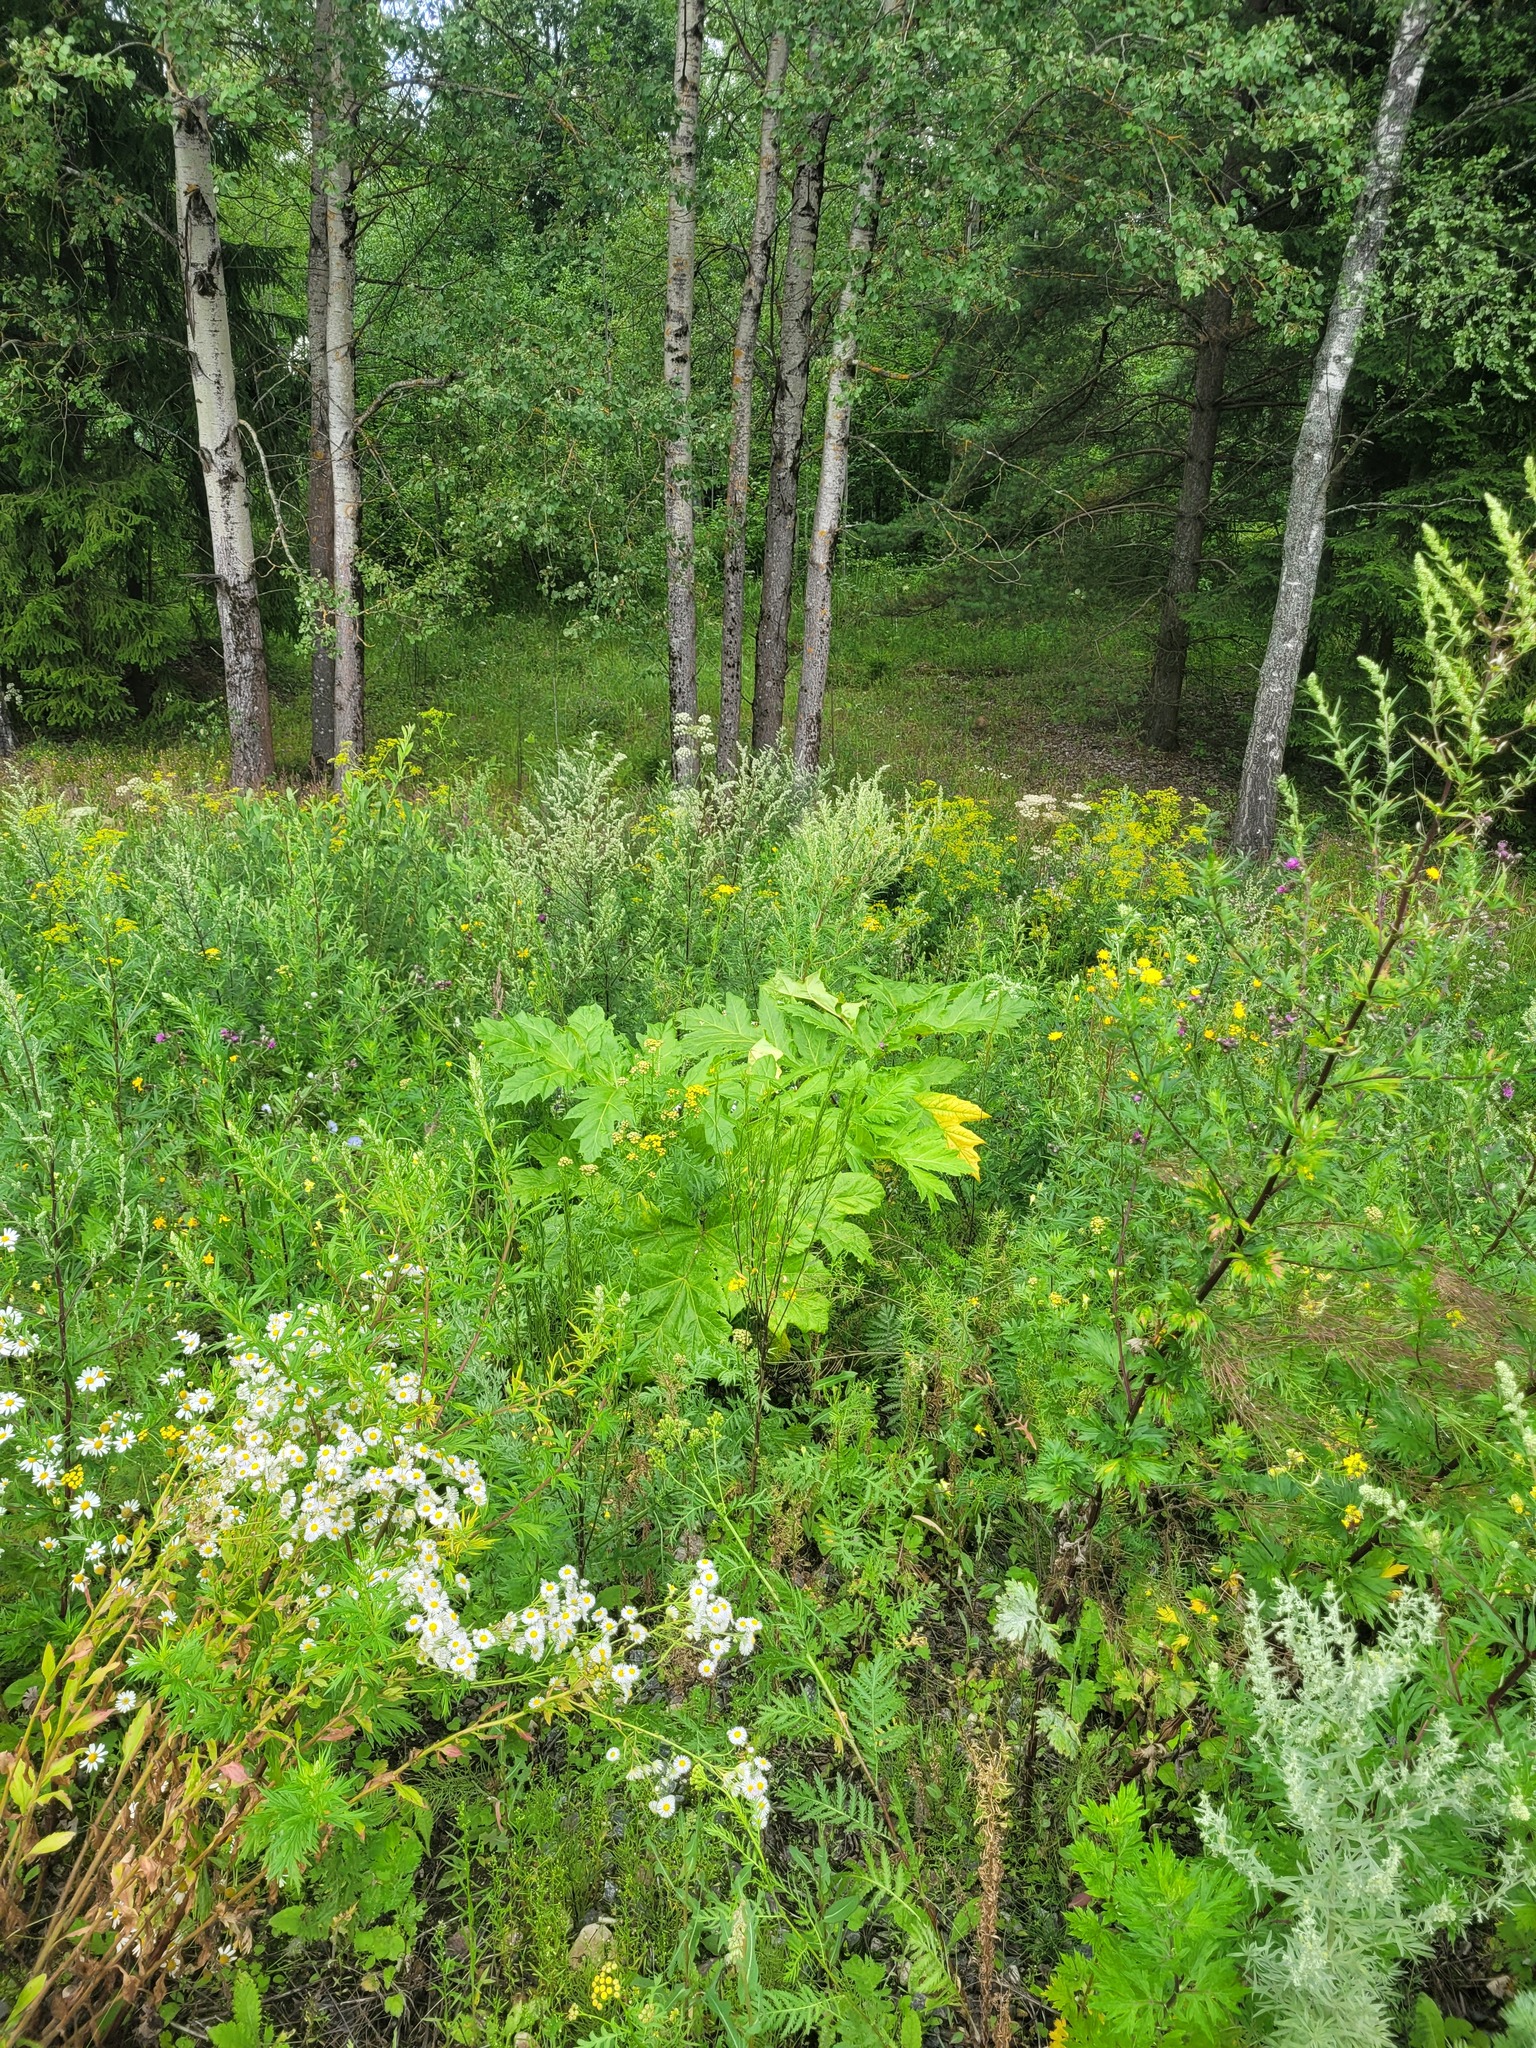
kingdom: Plantae
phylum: Tracheophyta
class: Magnoliopsida
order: Apiales
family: Apiaceae
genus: Heracleum
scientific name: Heracleum sosnowskyi
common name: Sosnowsky's hogweed
